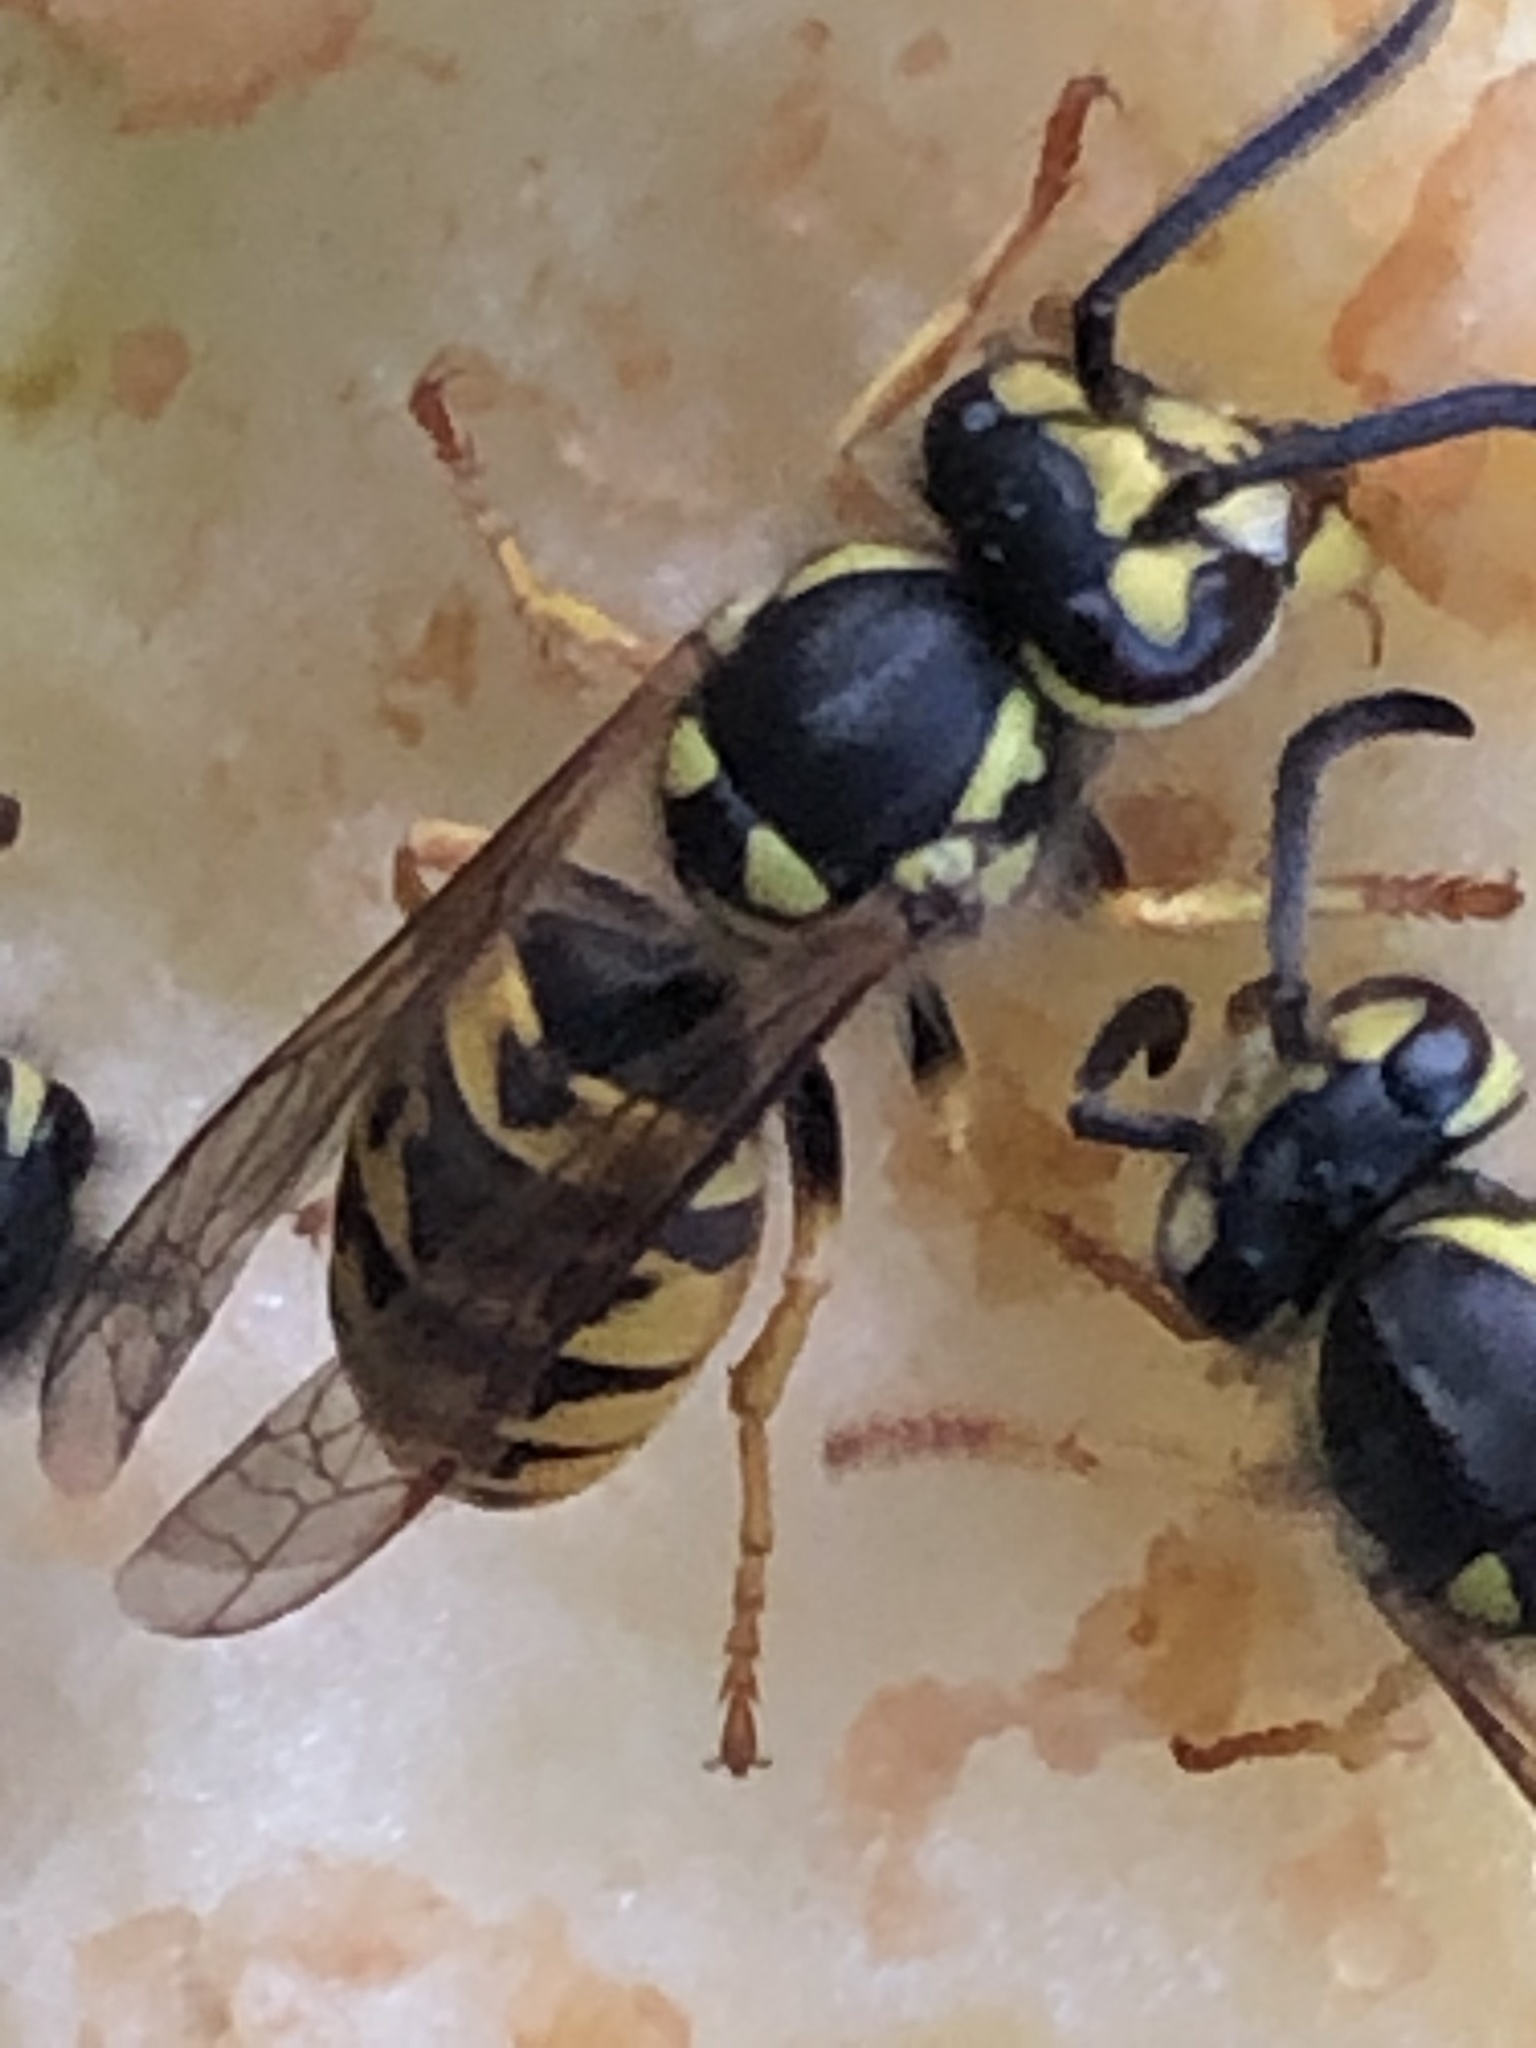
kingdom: Animalia
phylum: Arthropoda
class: Insecta
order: Hymenoptera
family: Vespidae
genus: Vespula
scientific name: Vespula germanica
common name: German wasp
